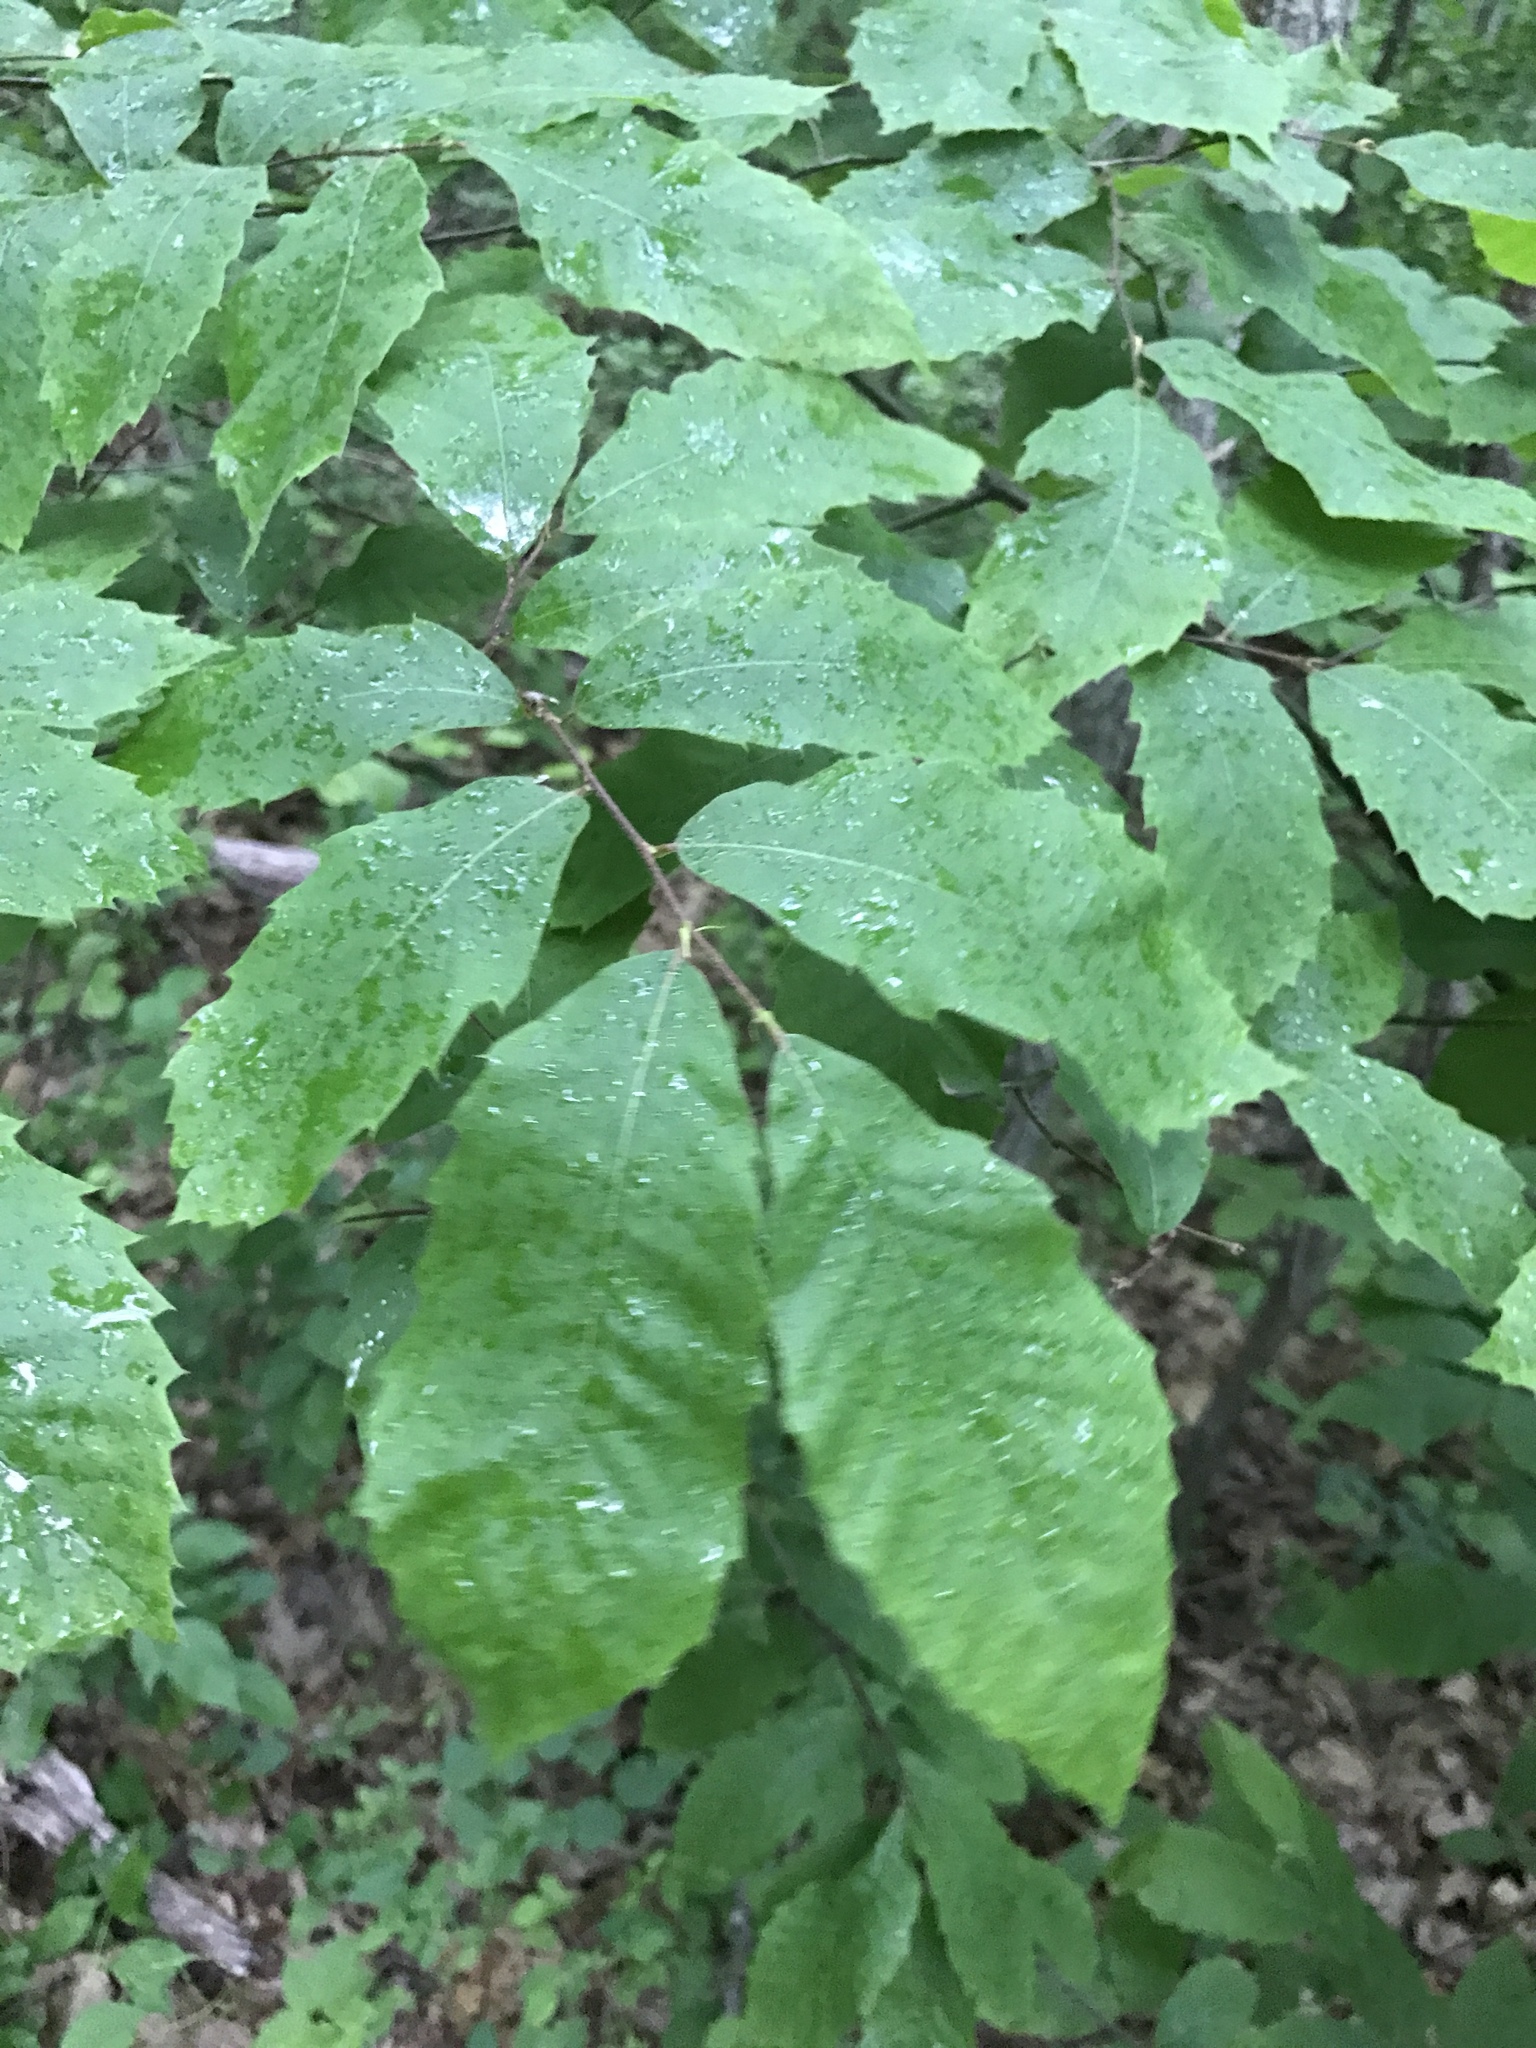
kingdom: Plantae
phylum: Tracheophyta
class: Magnoliopsida
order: Fagales
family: Fagaceae
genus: Castanea
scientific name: Castanea pumila
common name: Chinkapin
